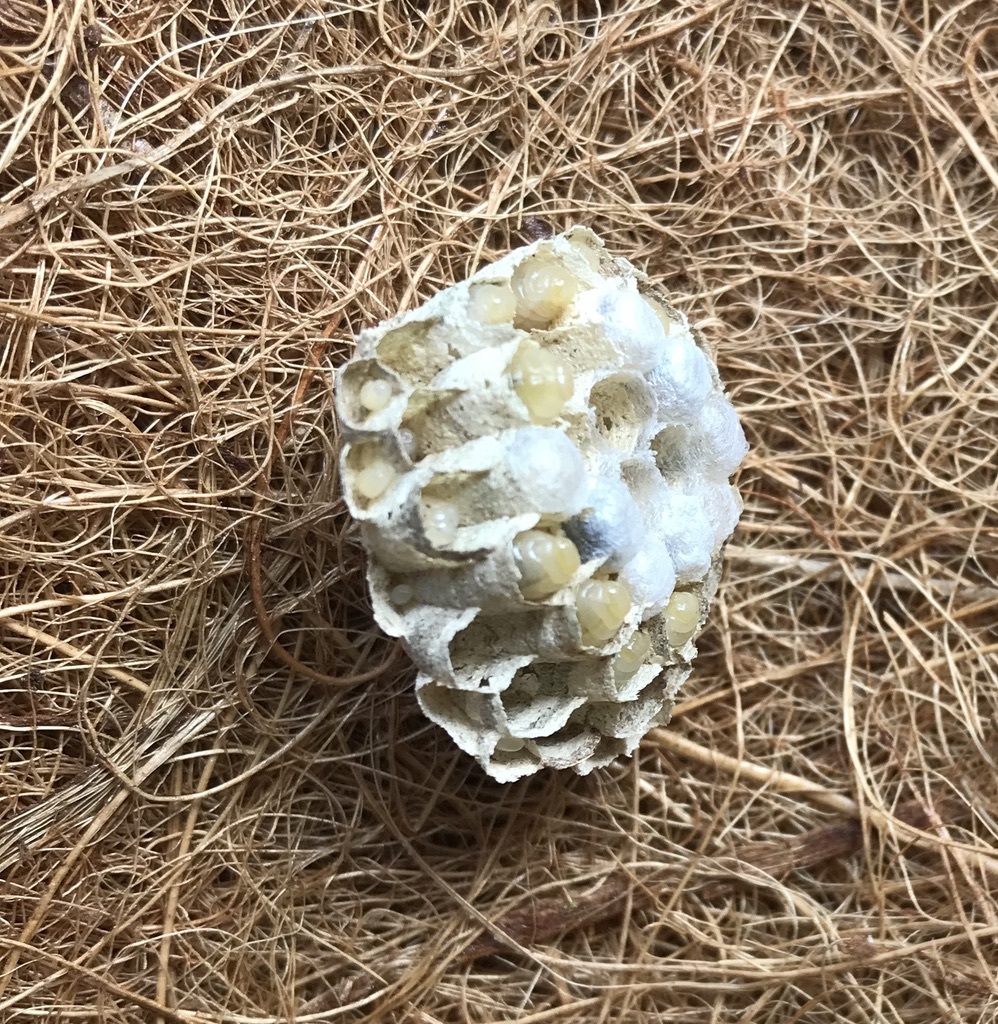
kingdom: Animalia
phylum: Arthropoda
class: Insecta
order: Hymenoptera
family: Eumenidae
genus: Polistes
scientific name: Polistes
